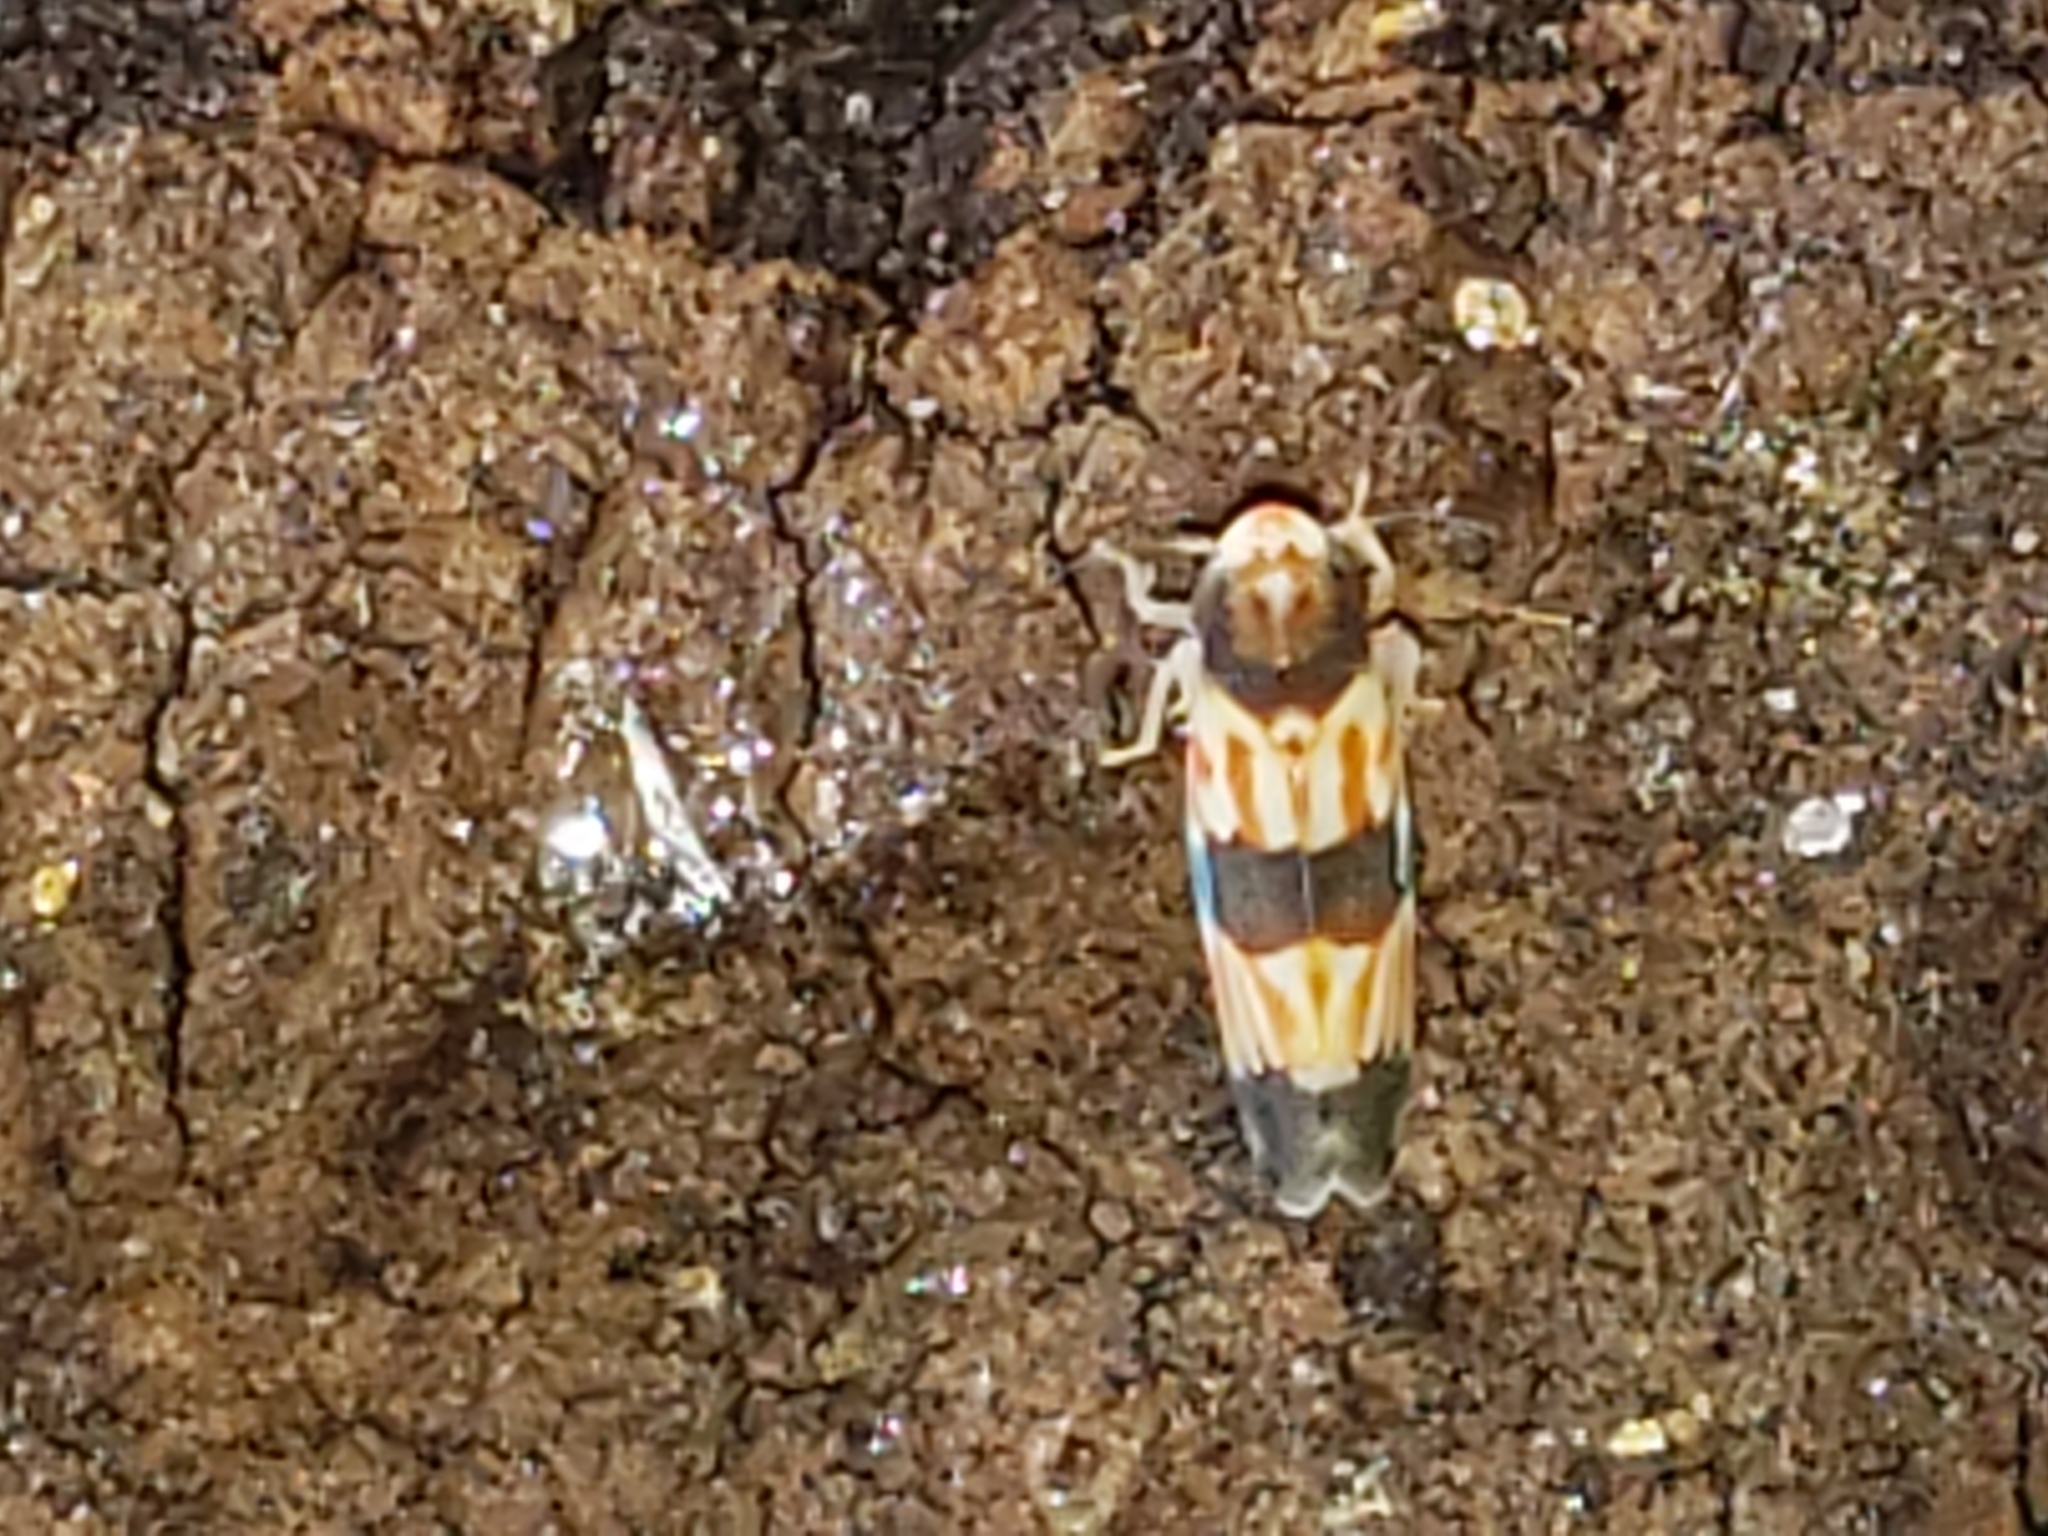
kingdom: Animalia
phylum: Arthropoda
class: Insecta
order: Hemiptera
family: Cicadellidae
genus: Erythroneura
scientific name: Erythroneura calycula
